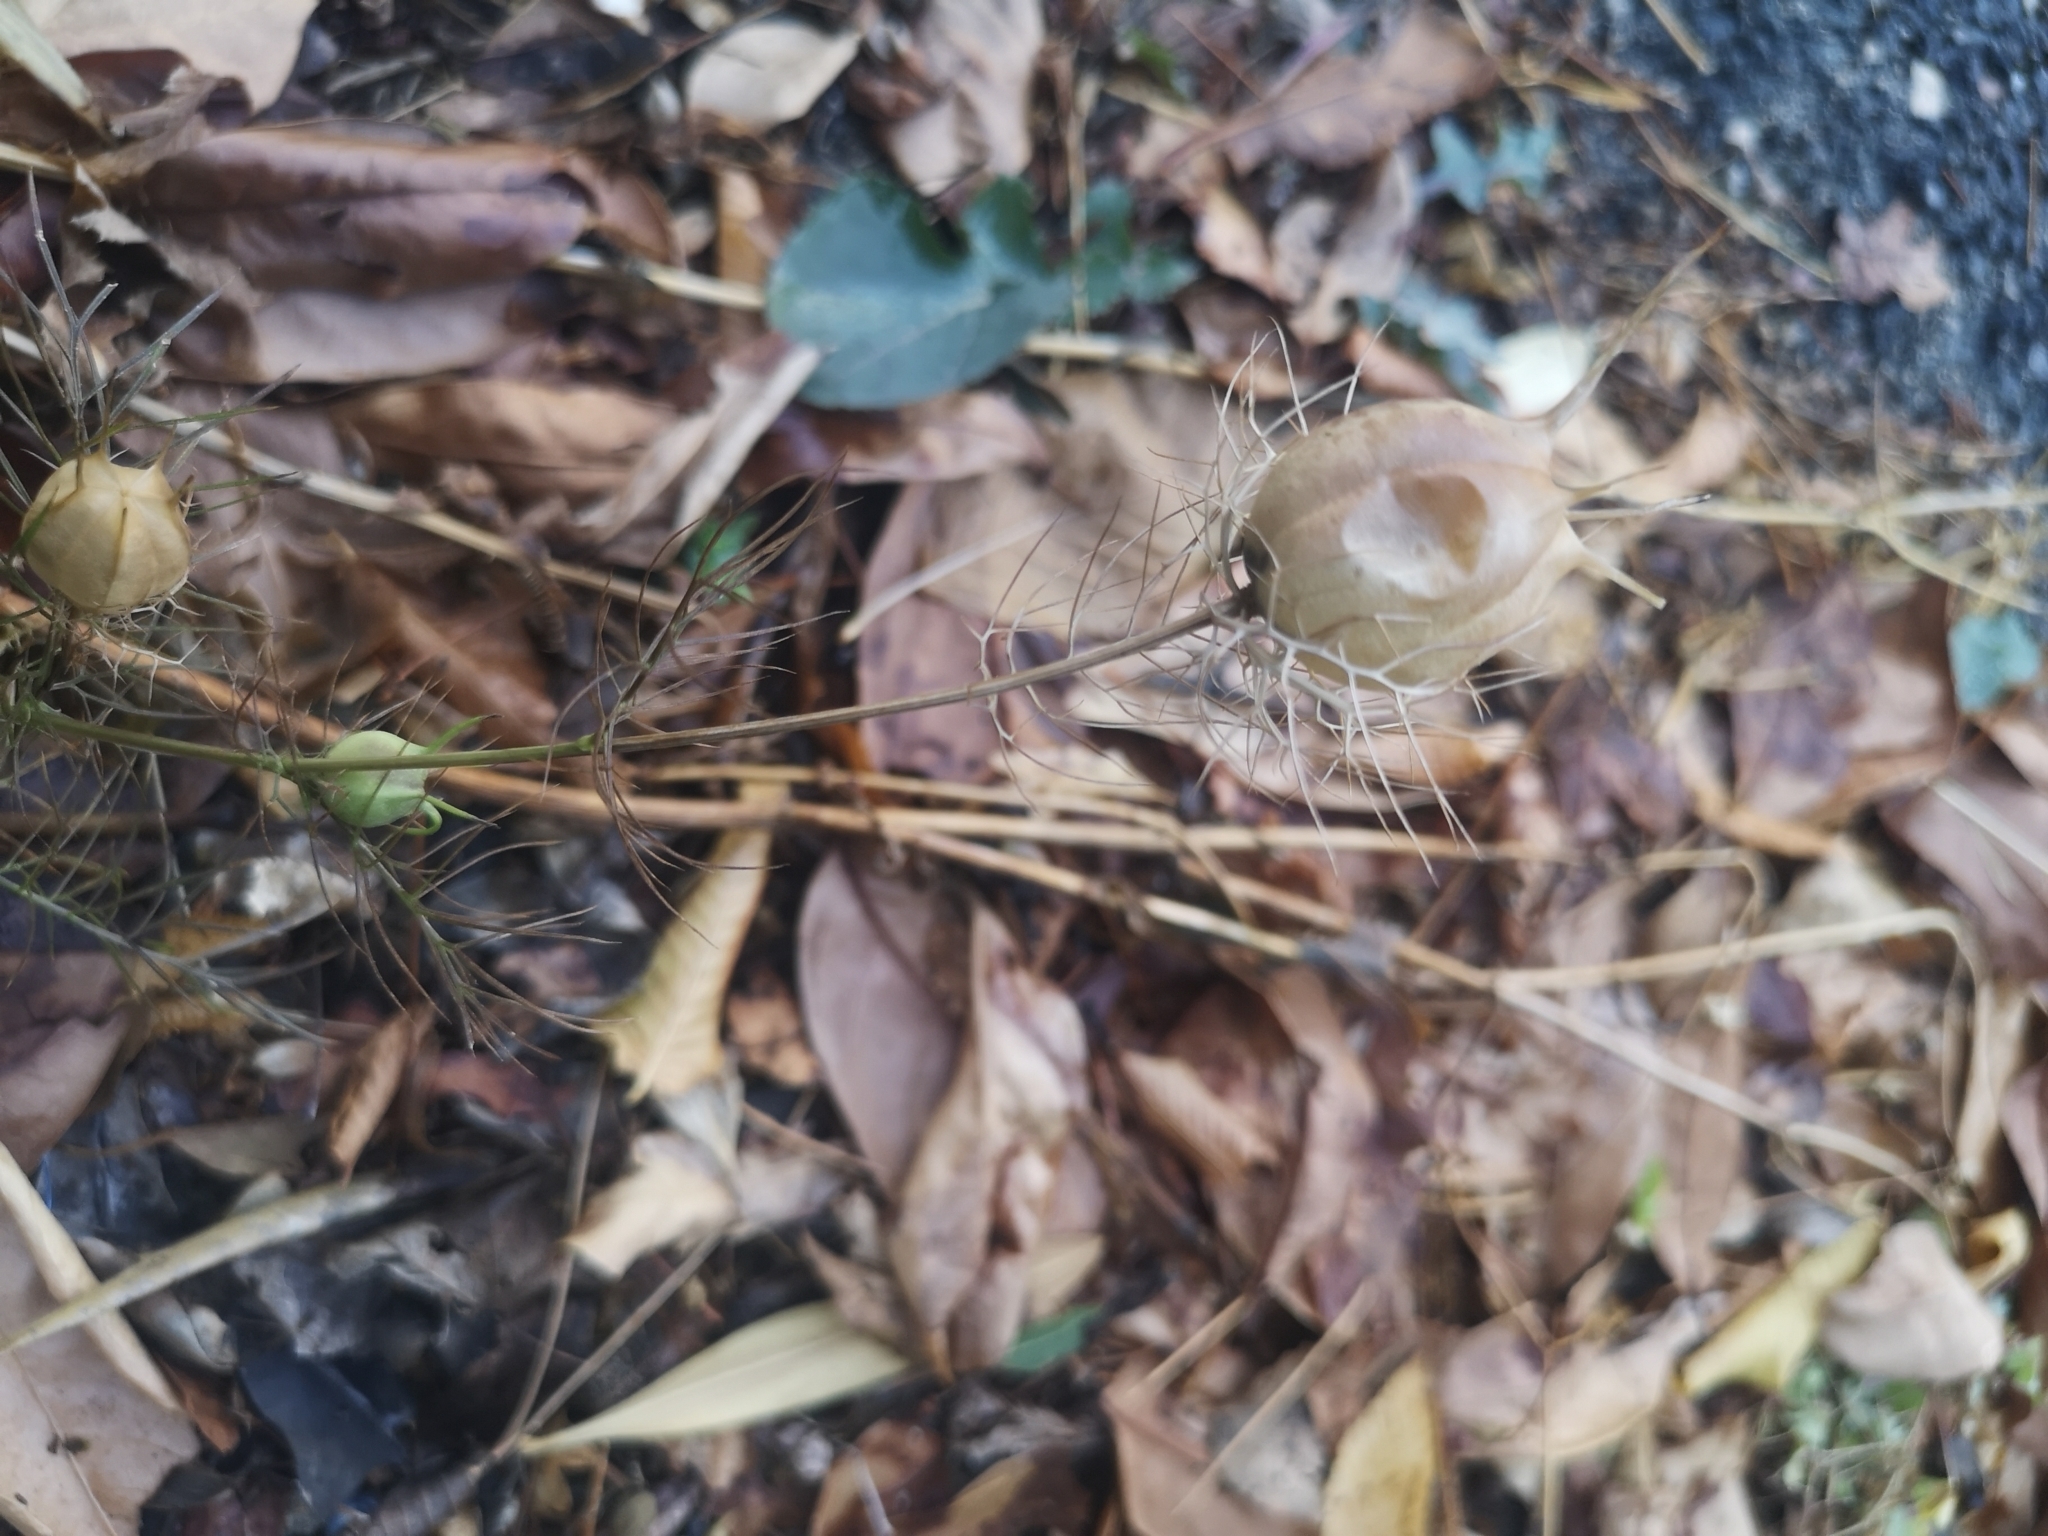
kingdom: Plantae
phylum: Tracheophyta
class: Magnoliopsida
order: Ranunculales
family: Ranunculaceae
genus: Nigella
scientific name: Nigella damascena
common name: Love-in-a-mist
